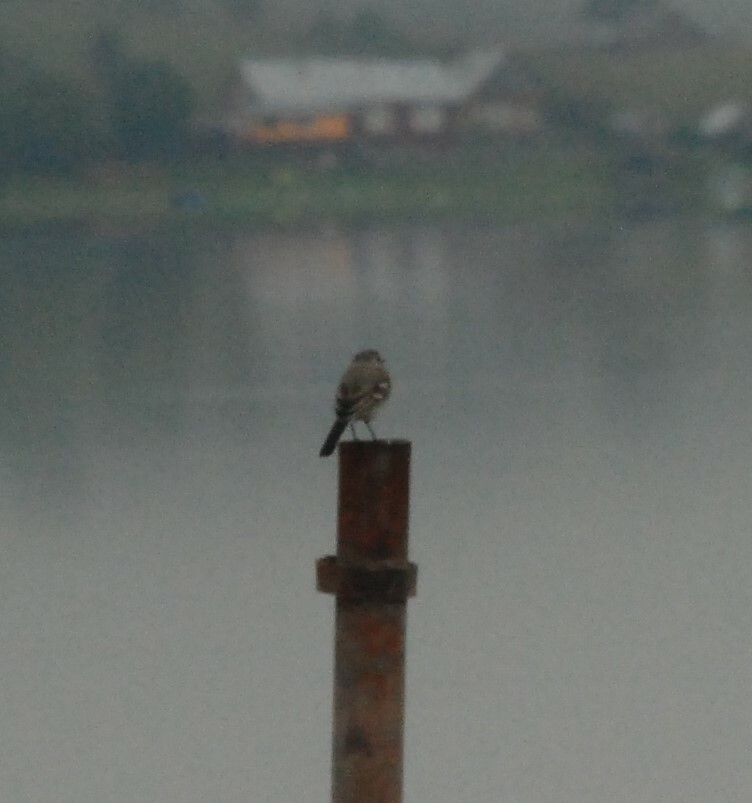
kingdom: Animalia
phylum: Chordata
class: Aves
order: Passeriformes
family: Motacillidae
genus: Motacilla
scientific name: Motacilla alba
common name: White wagtail
